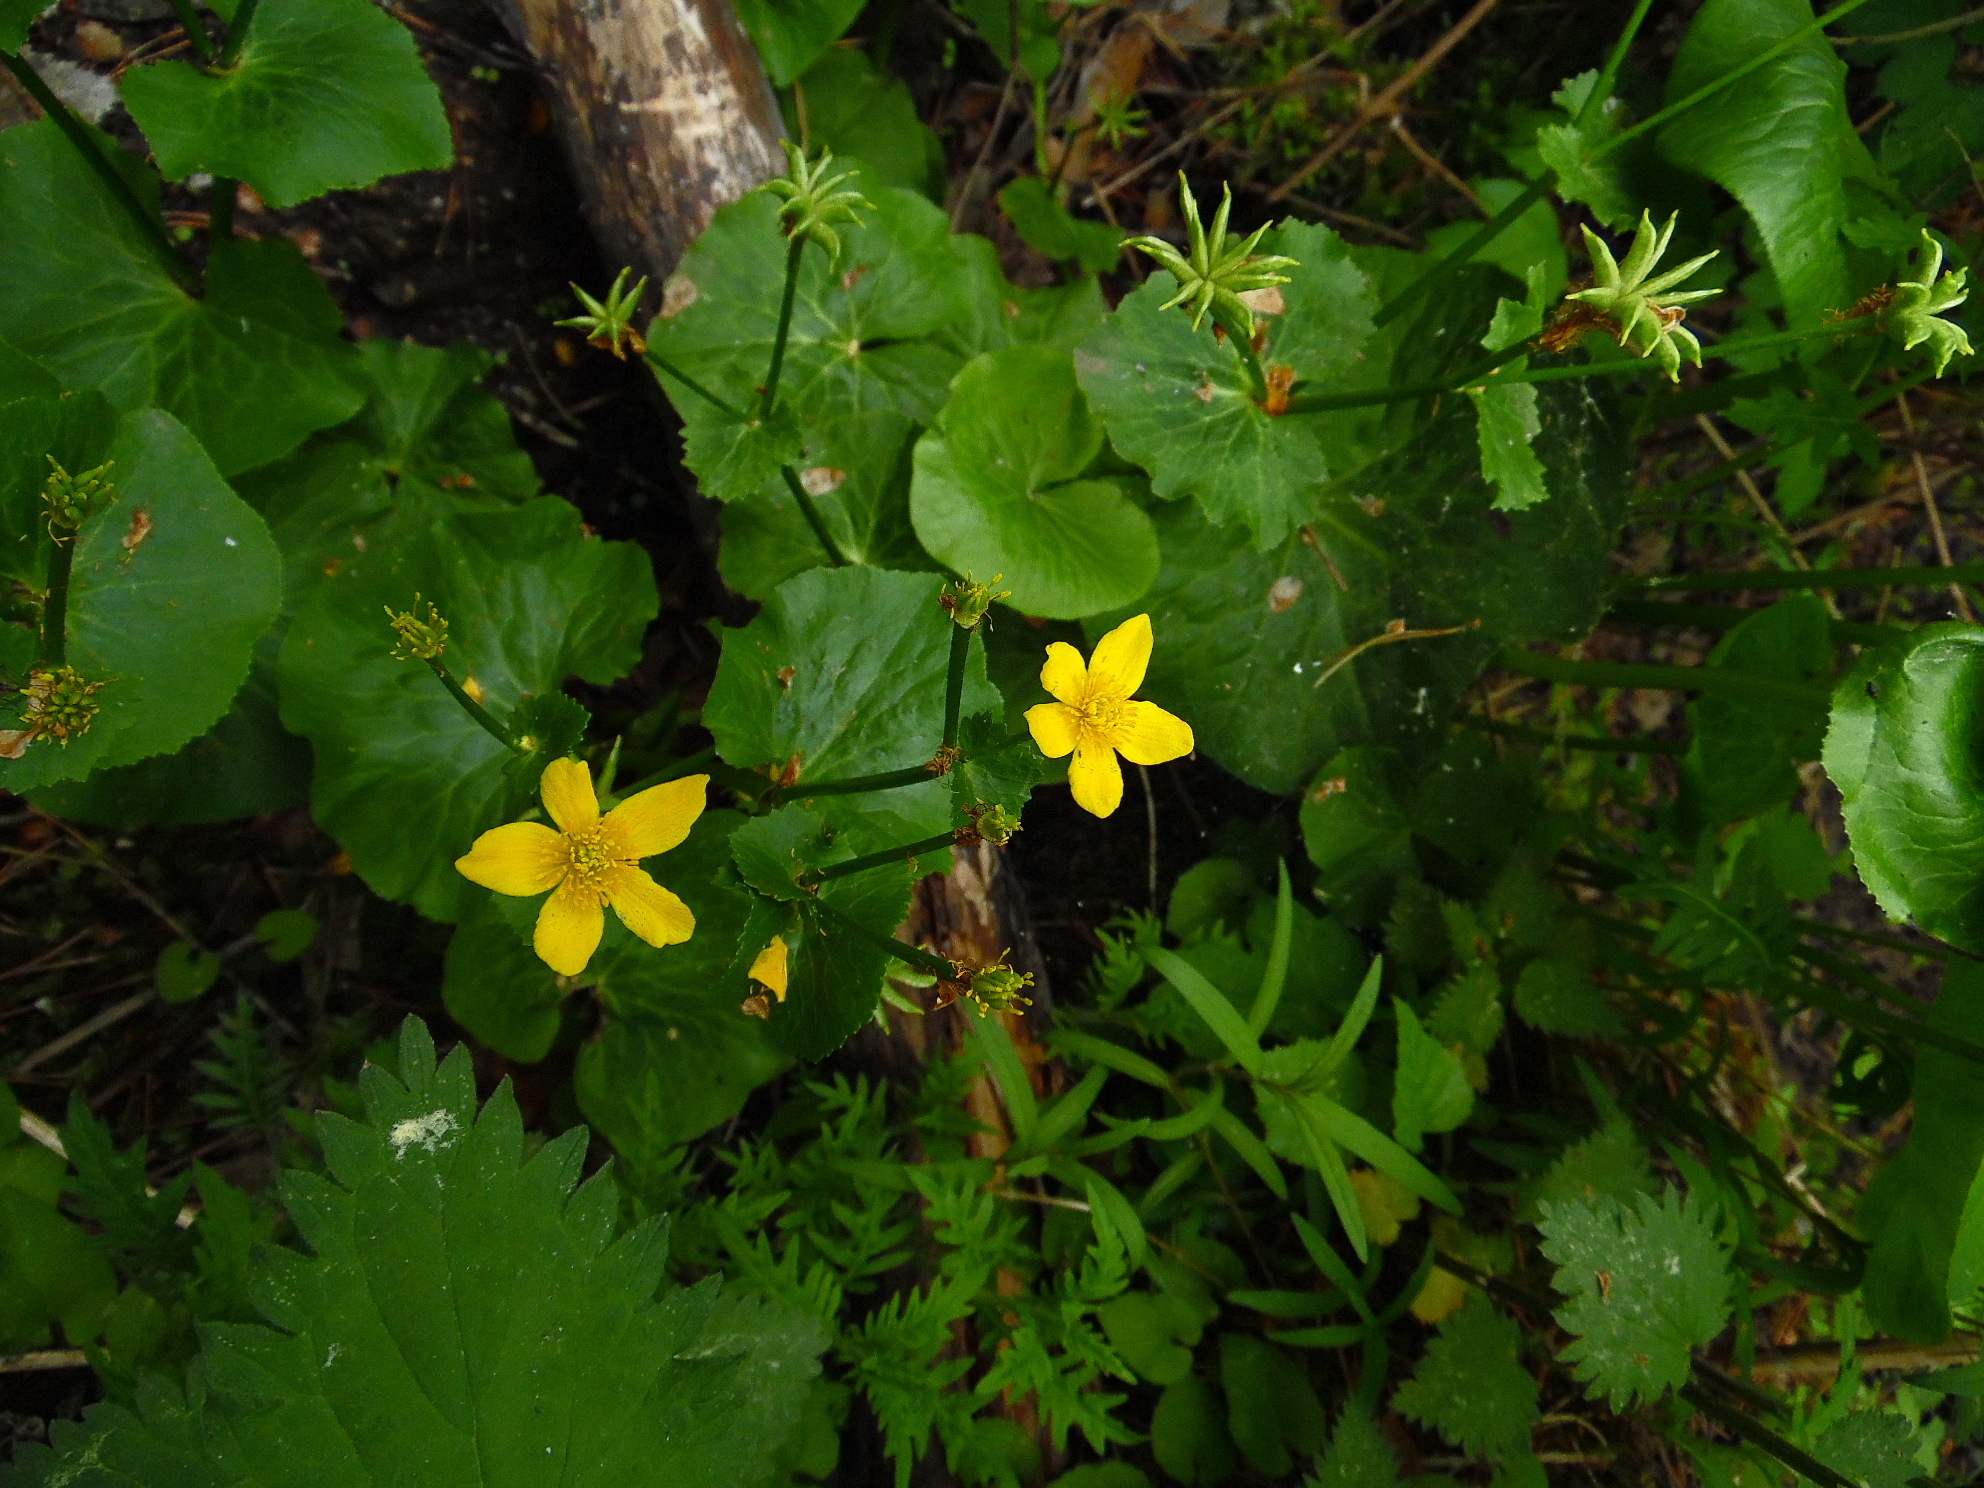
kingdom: Plantae
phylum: Tracheophyta
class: Magnoliopsida
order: Ranunculales
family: Ranunculaceae
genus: Caltha
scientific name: Caltha palustris
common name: Marsh marigold
